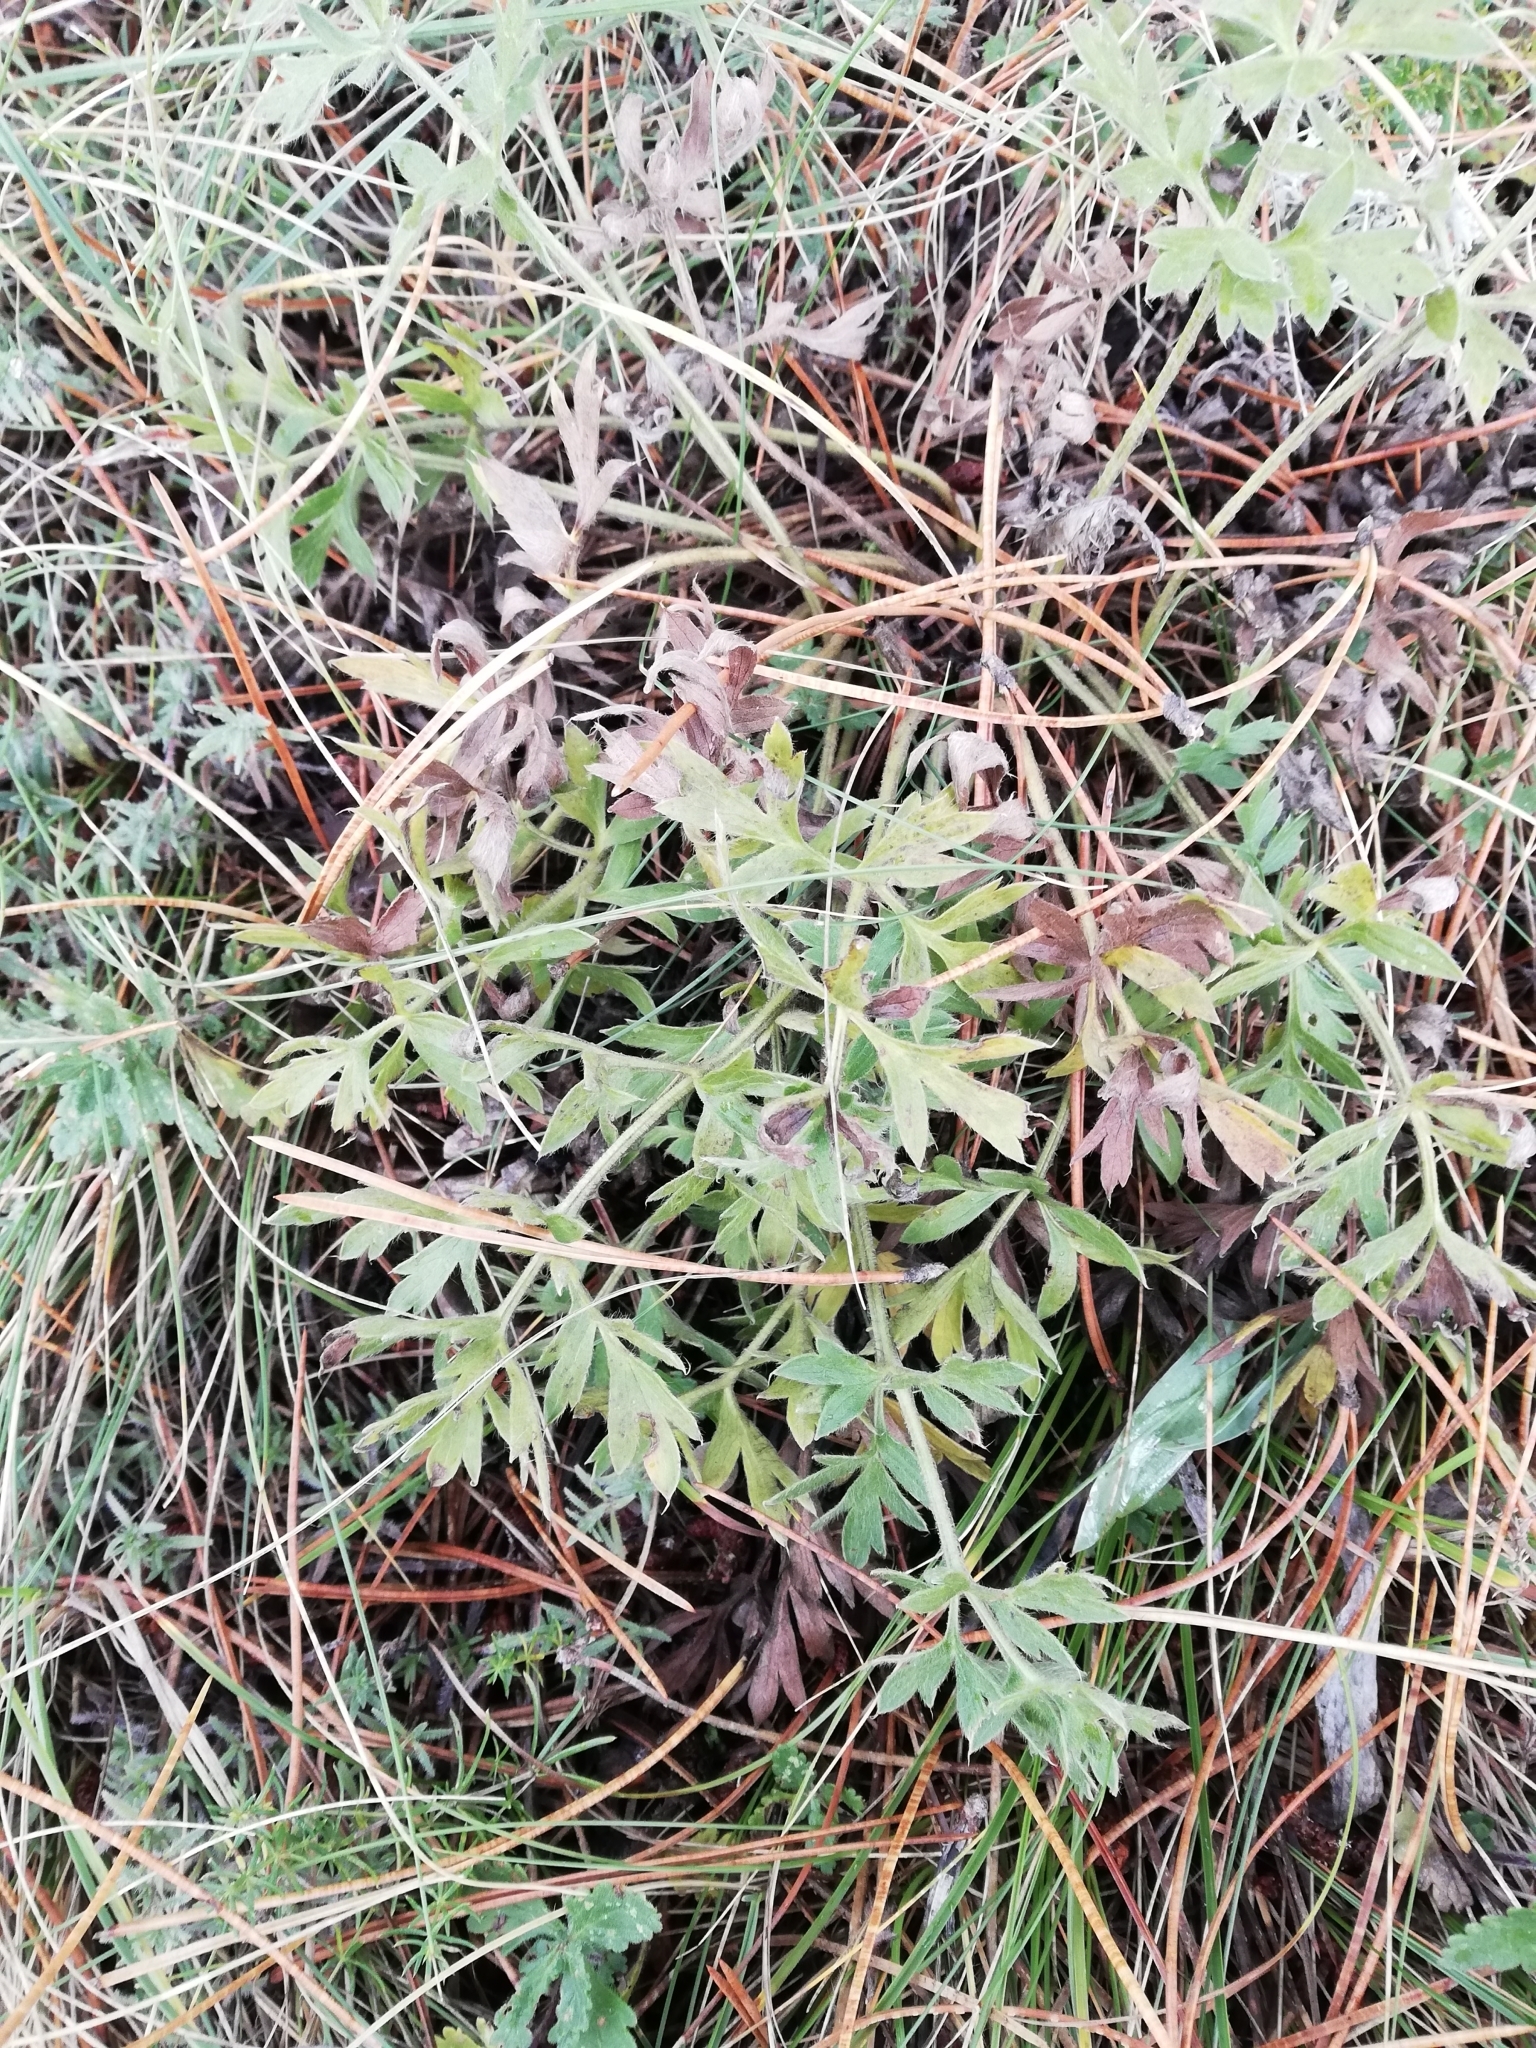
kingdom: Plantae
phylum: Tracheophyta
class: Magnoliopsida
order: Apiales
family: Apiaceae
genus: Pimpinella
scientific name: Pimpinella tragium
